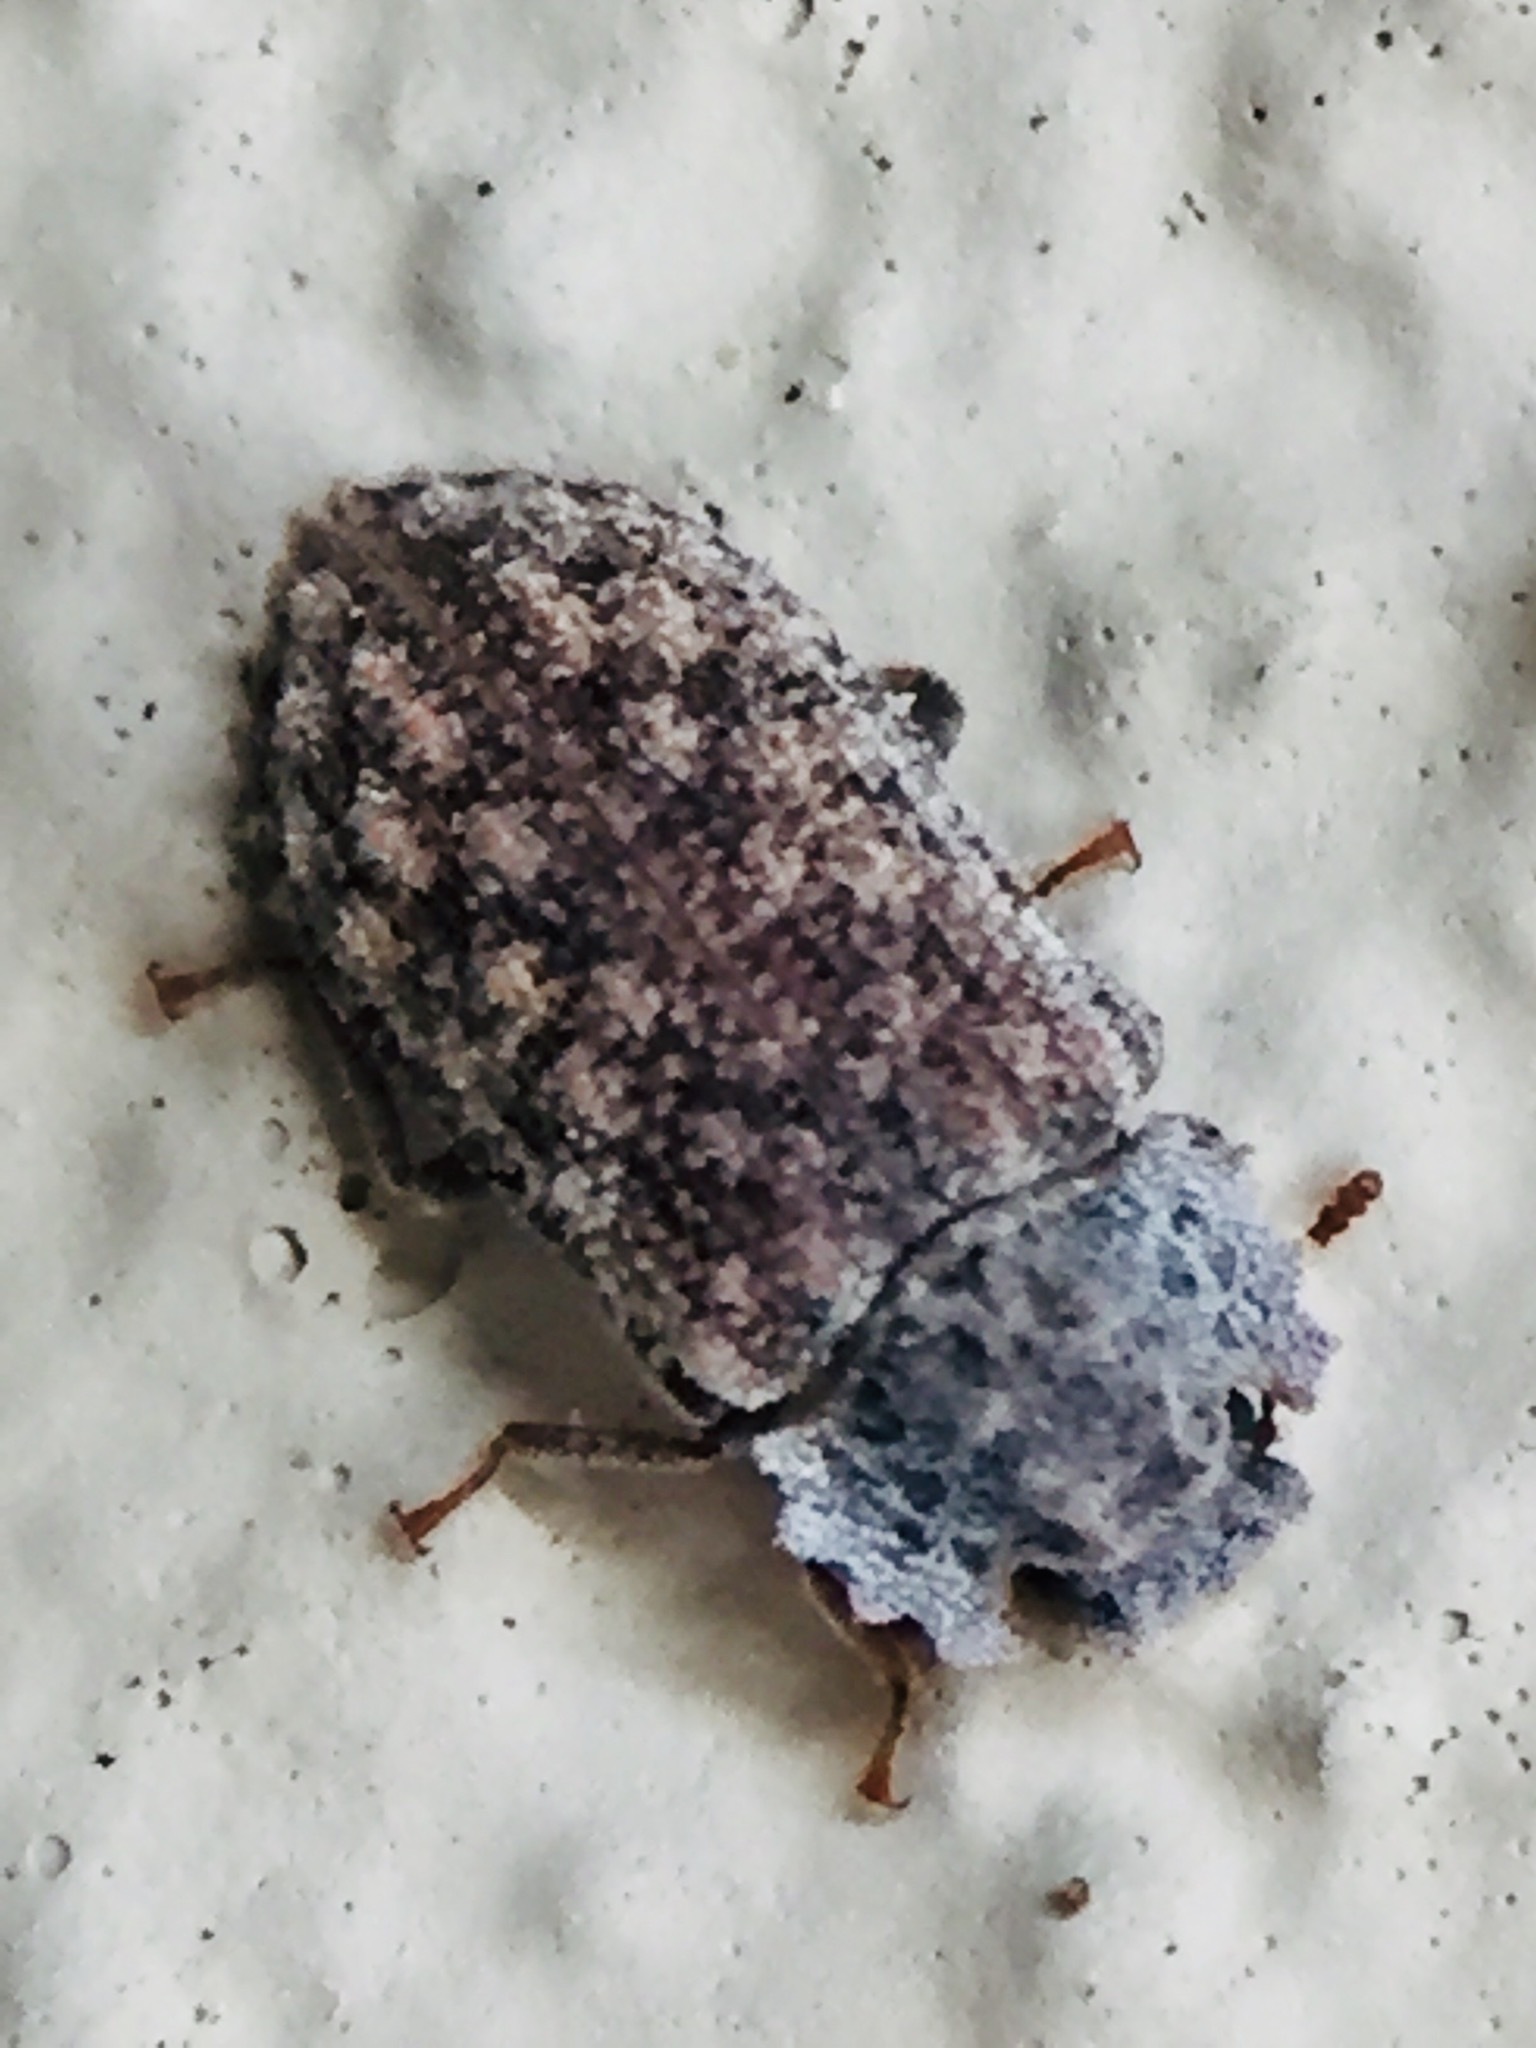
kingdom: Animalia
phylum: Arthropoda
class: Insecta
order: Coleoptera
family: Zopheridae
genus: Pristoderus
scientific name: Pristoderus
